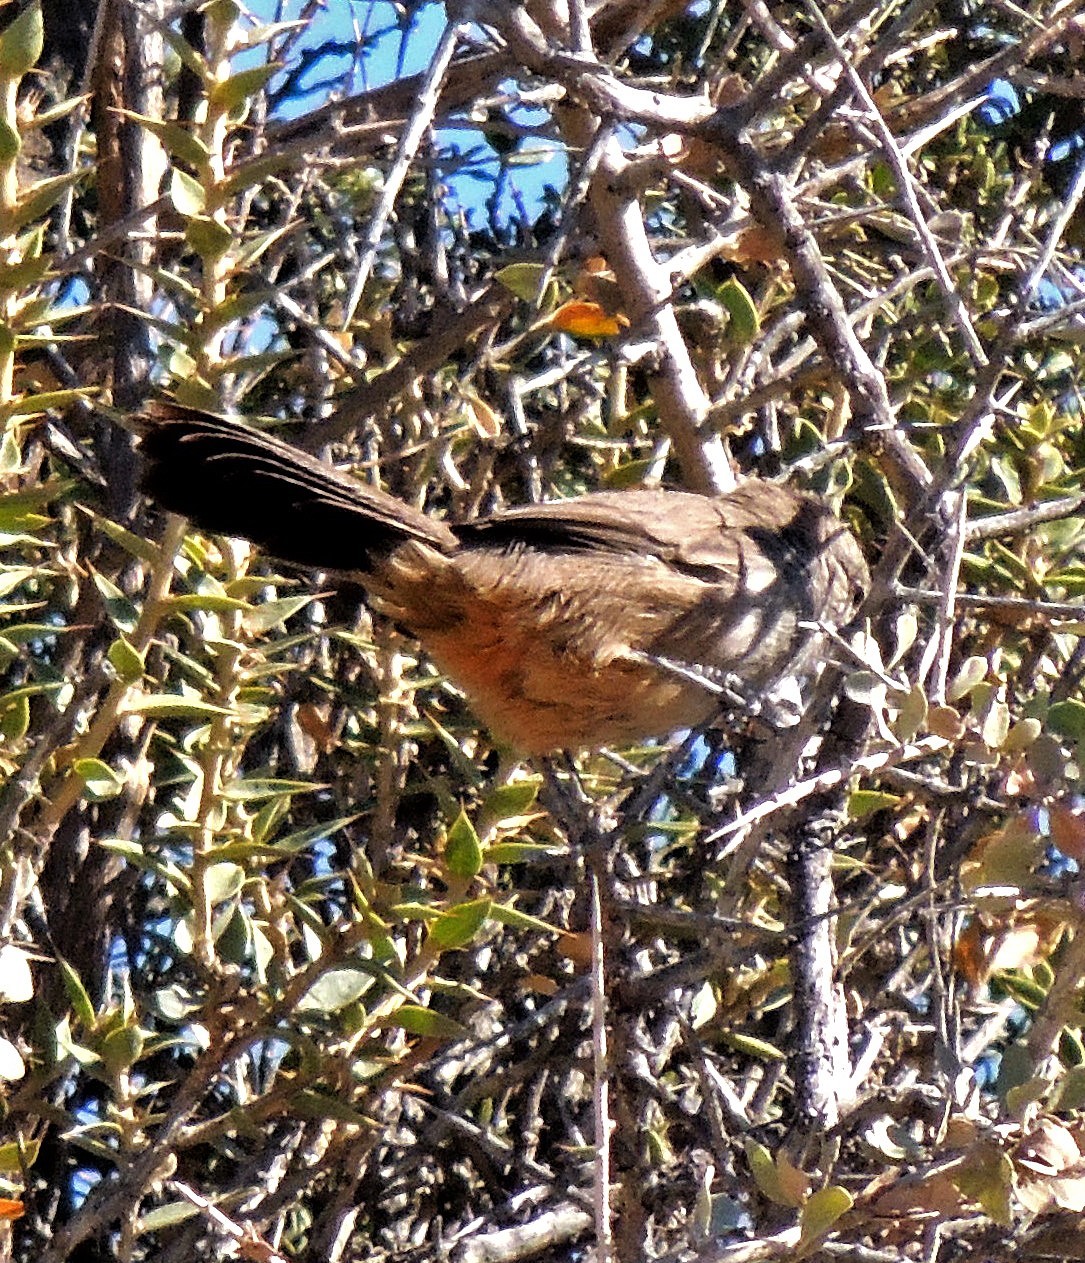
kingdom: Animalia
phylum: Chordata
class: Aves
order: Passeriformes
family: Furnariidae
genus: Asthenes
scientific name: Asthenes patagonica
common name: Patagonian canastero
